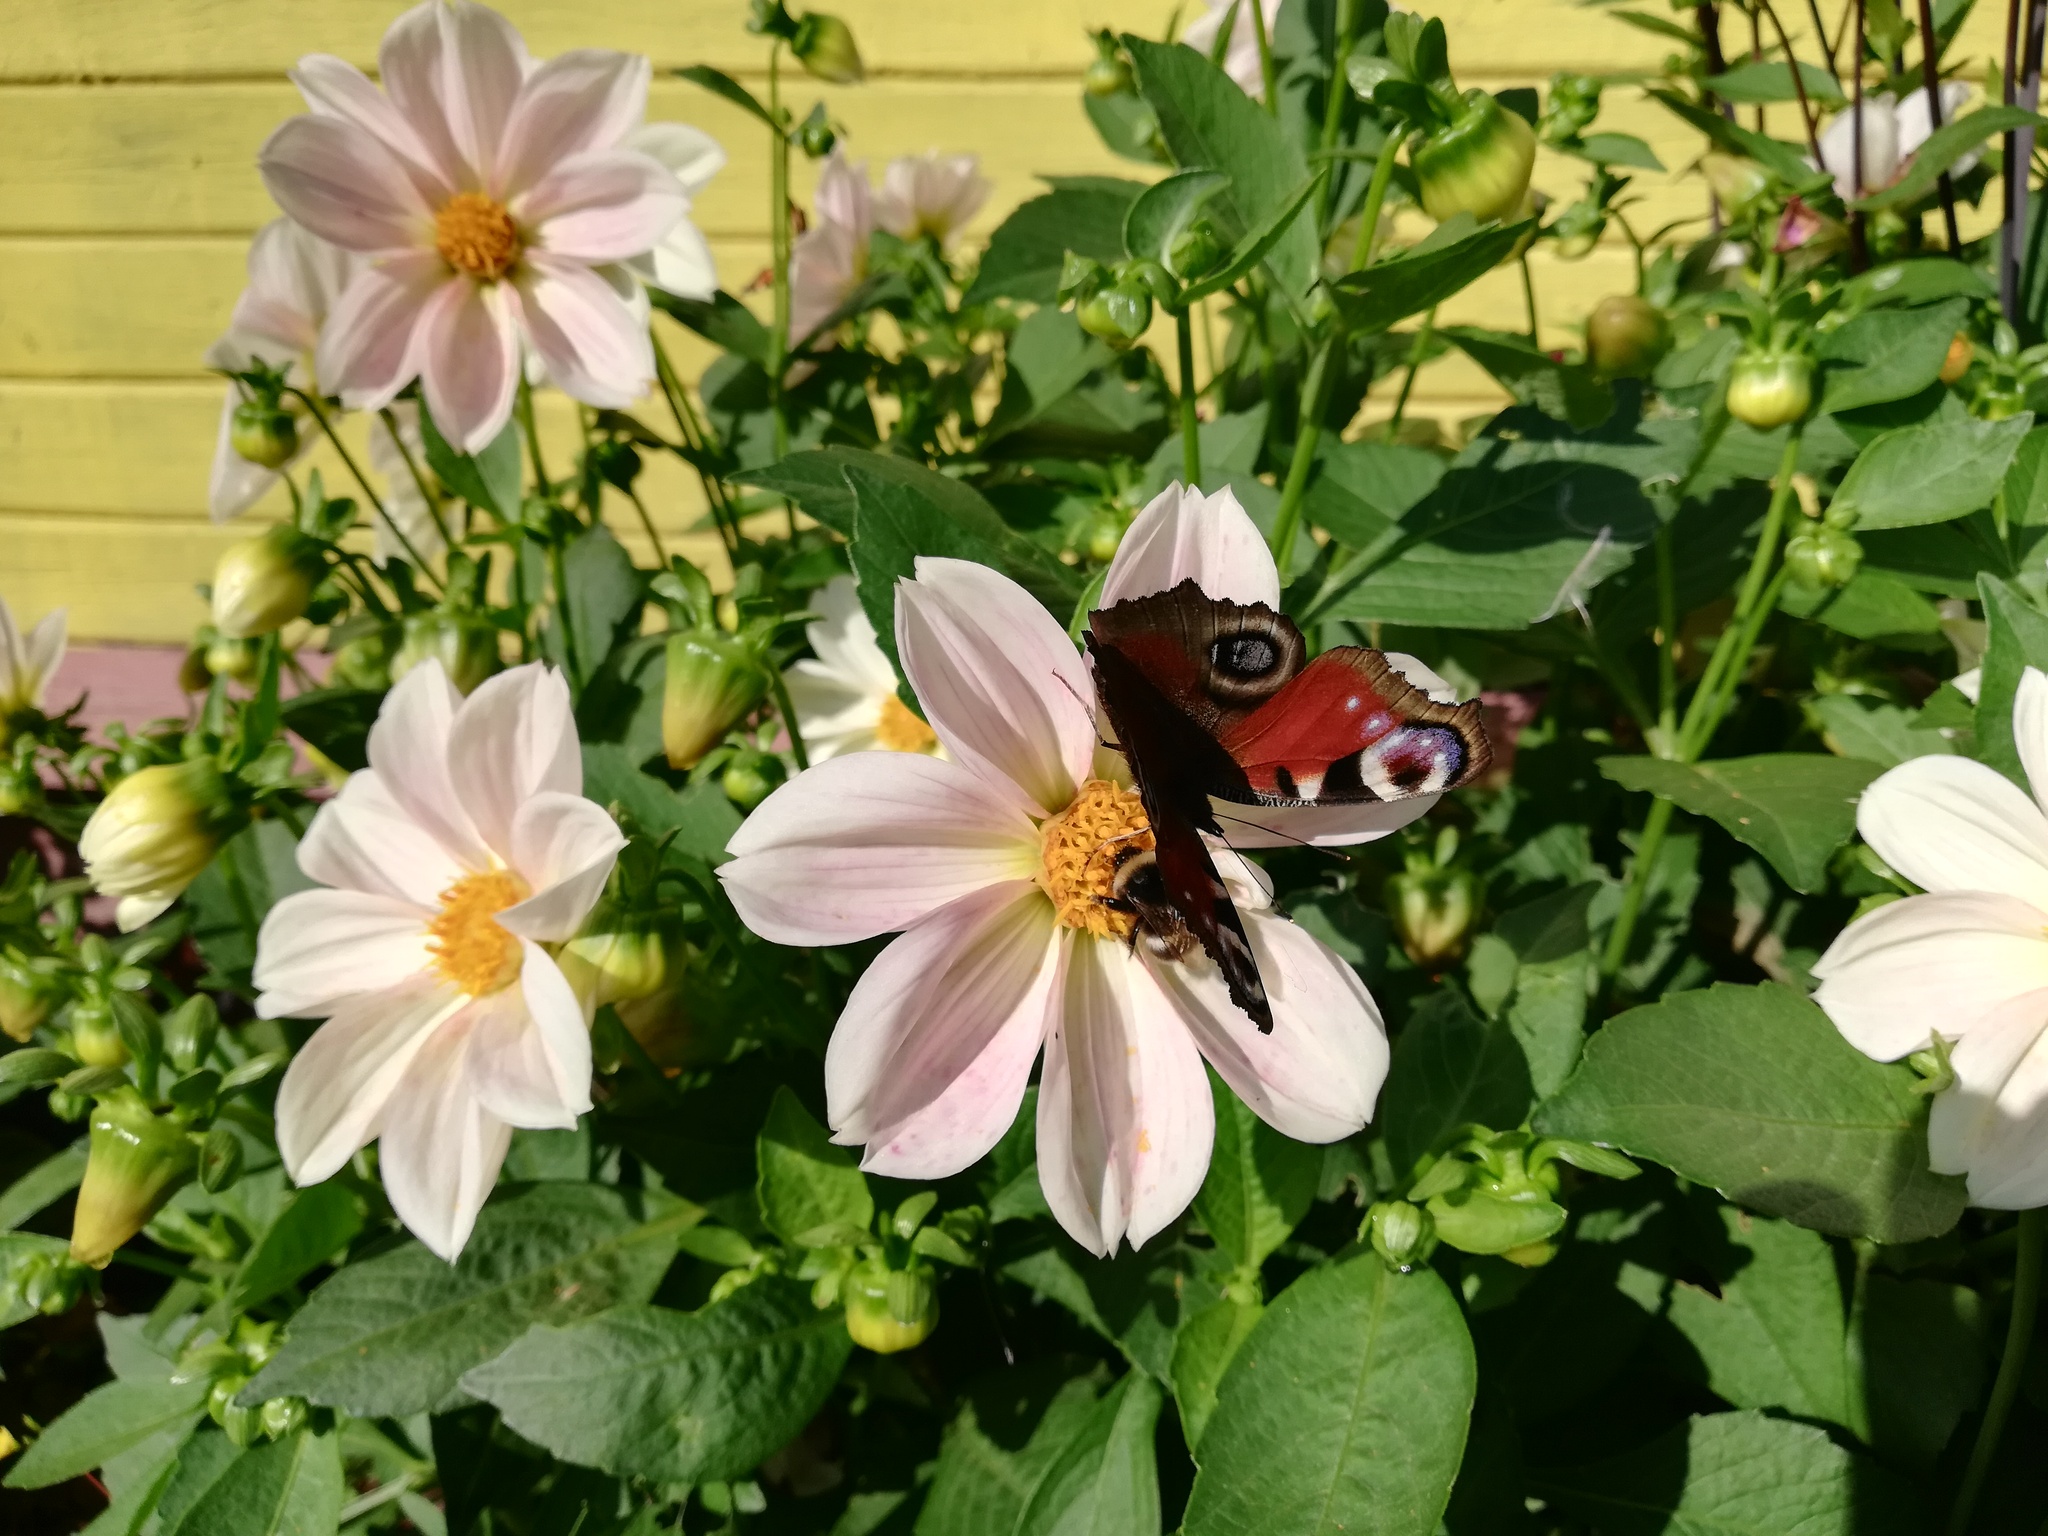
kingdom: Animalia
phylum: Arthropoda
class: Insecta
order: Lepidoptera
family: Nymphalidae
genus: Aglais
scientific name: Aglais io
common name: Peacock
